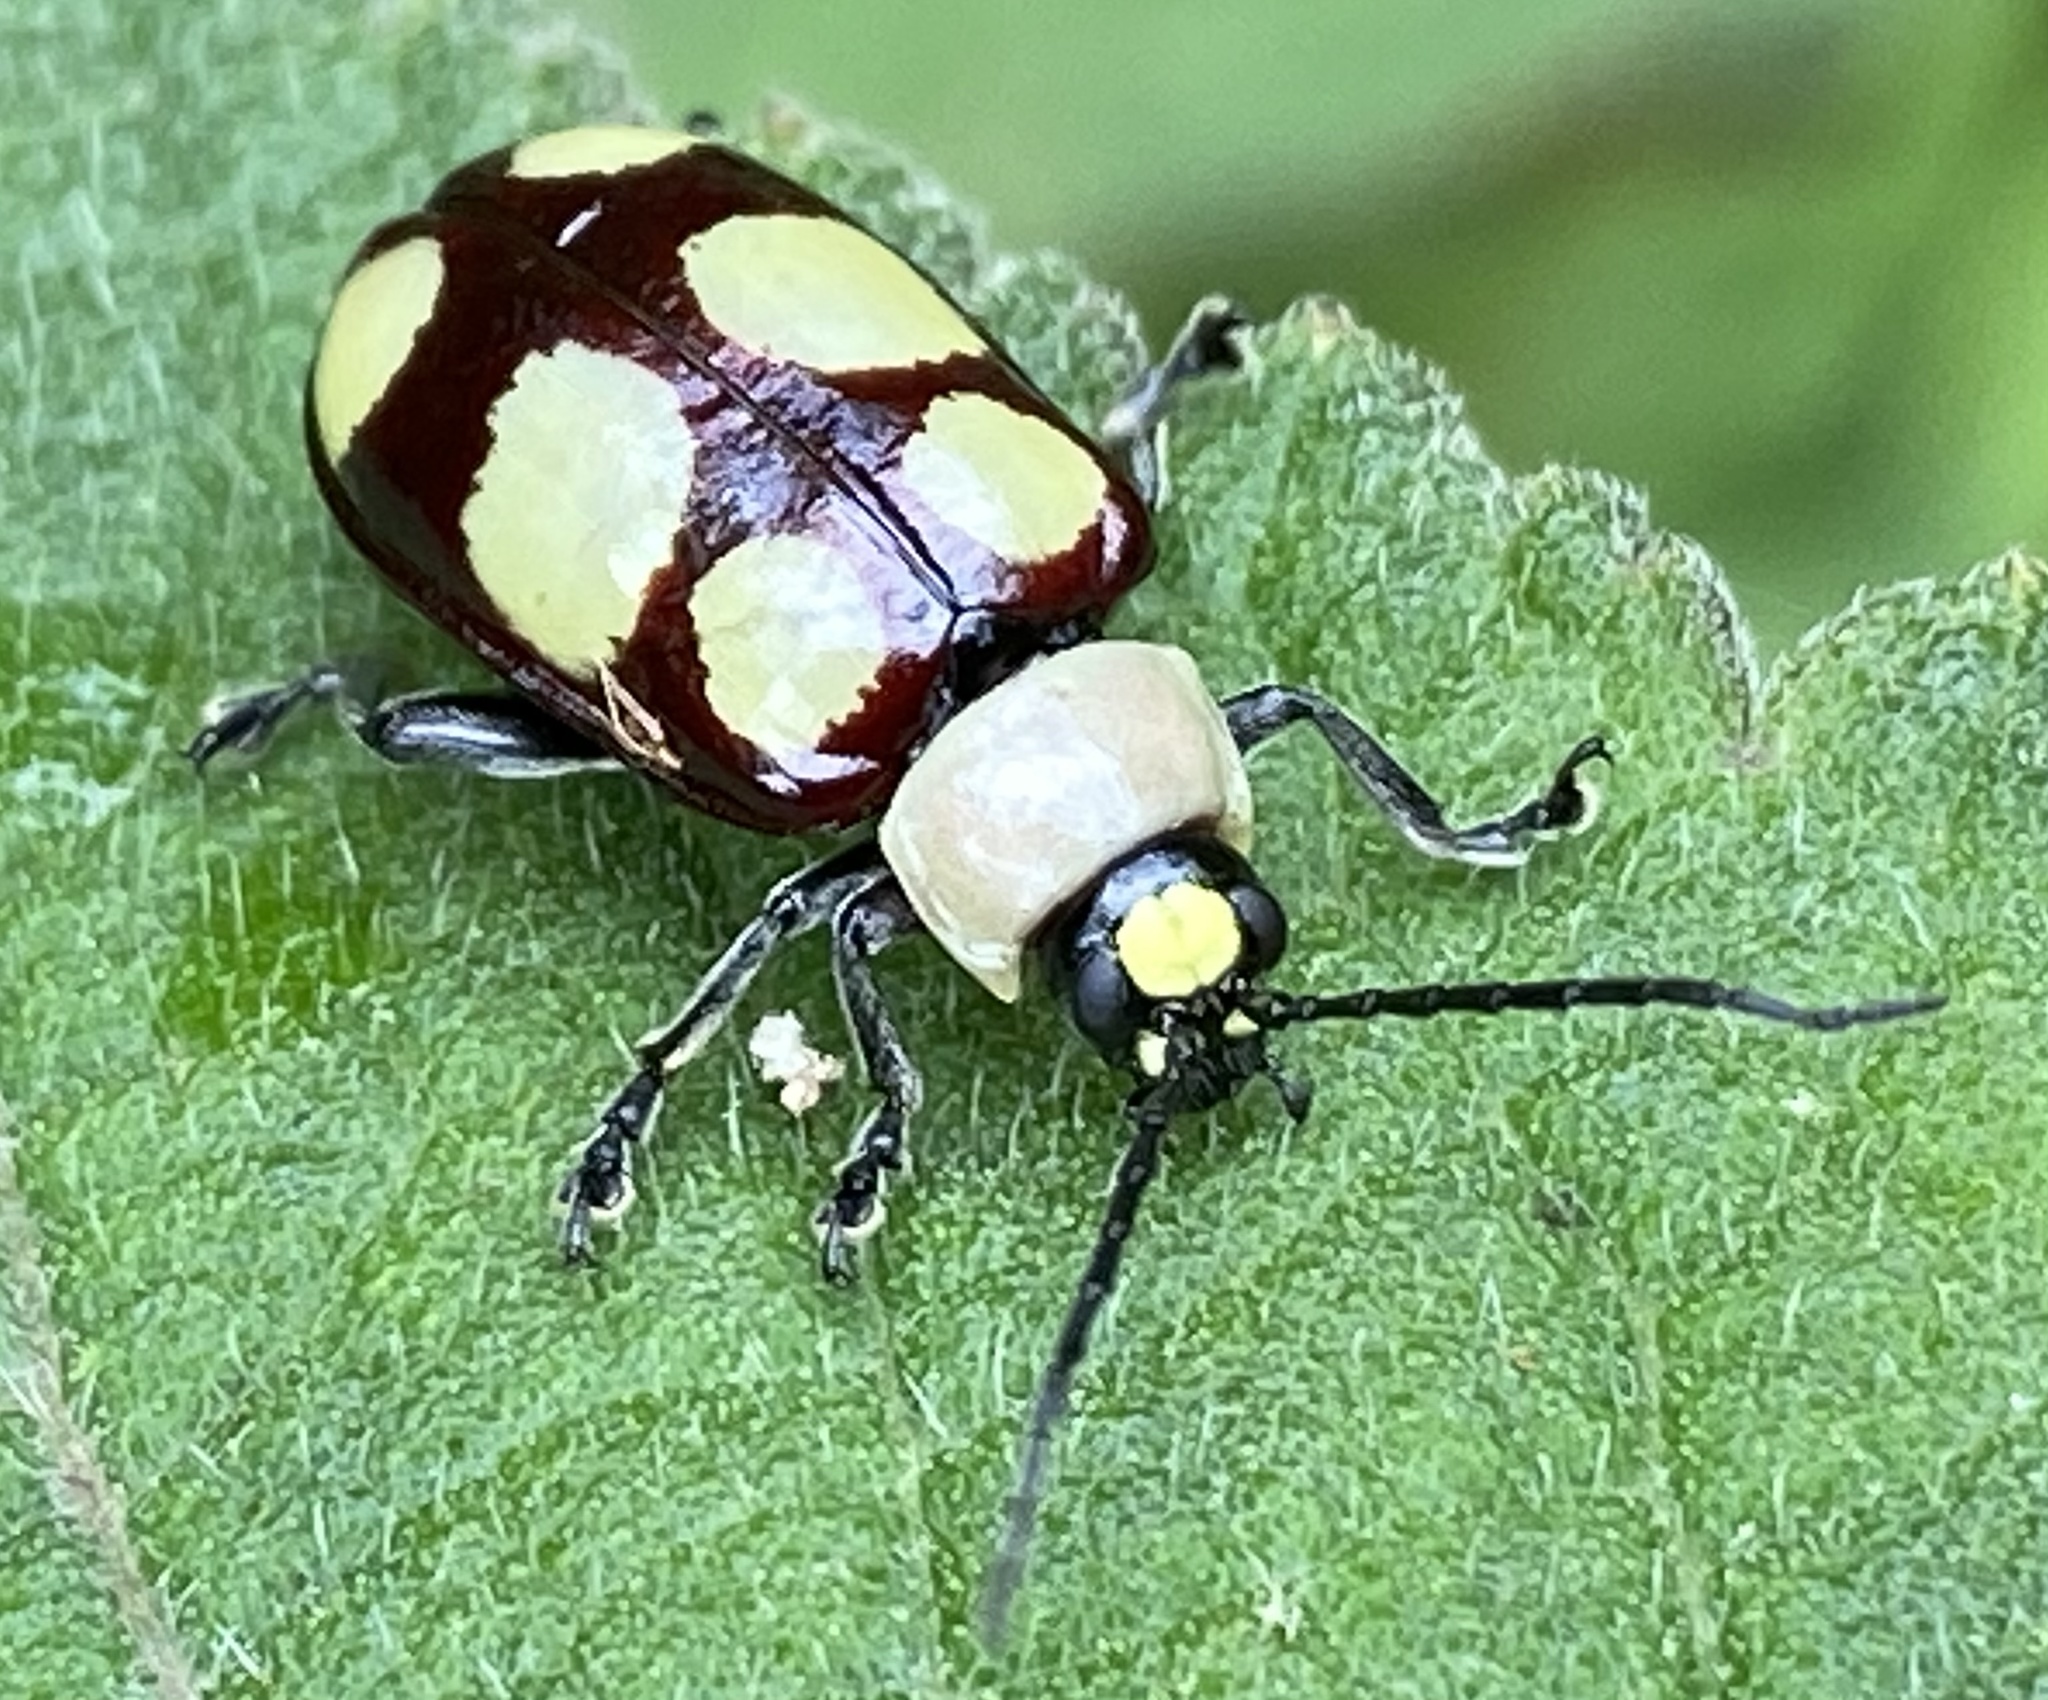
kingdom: Animalia
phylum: Arthropoda
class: Insecta
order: Coleoptera
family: Chrysomelidae
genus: Omophoita
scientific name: Omophoita
